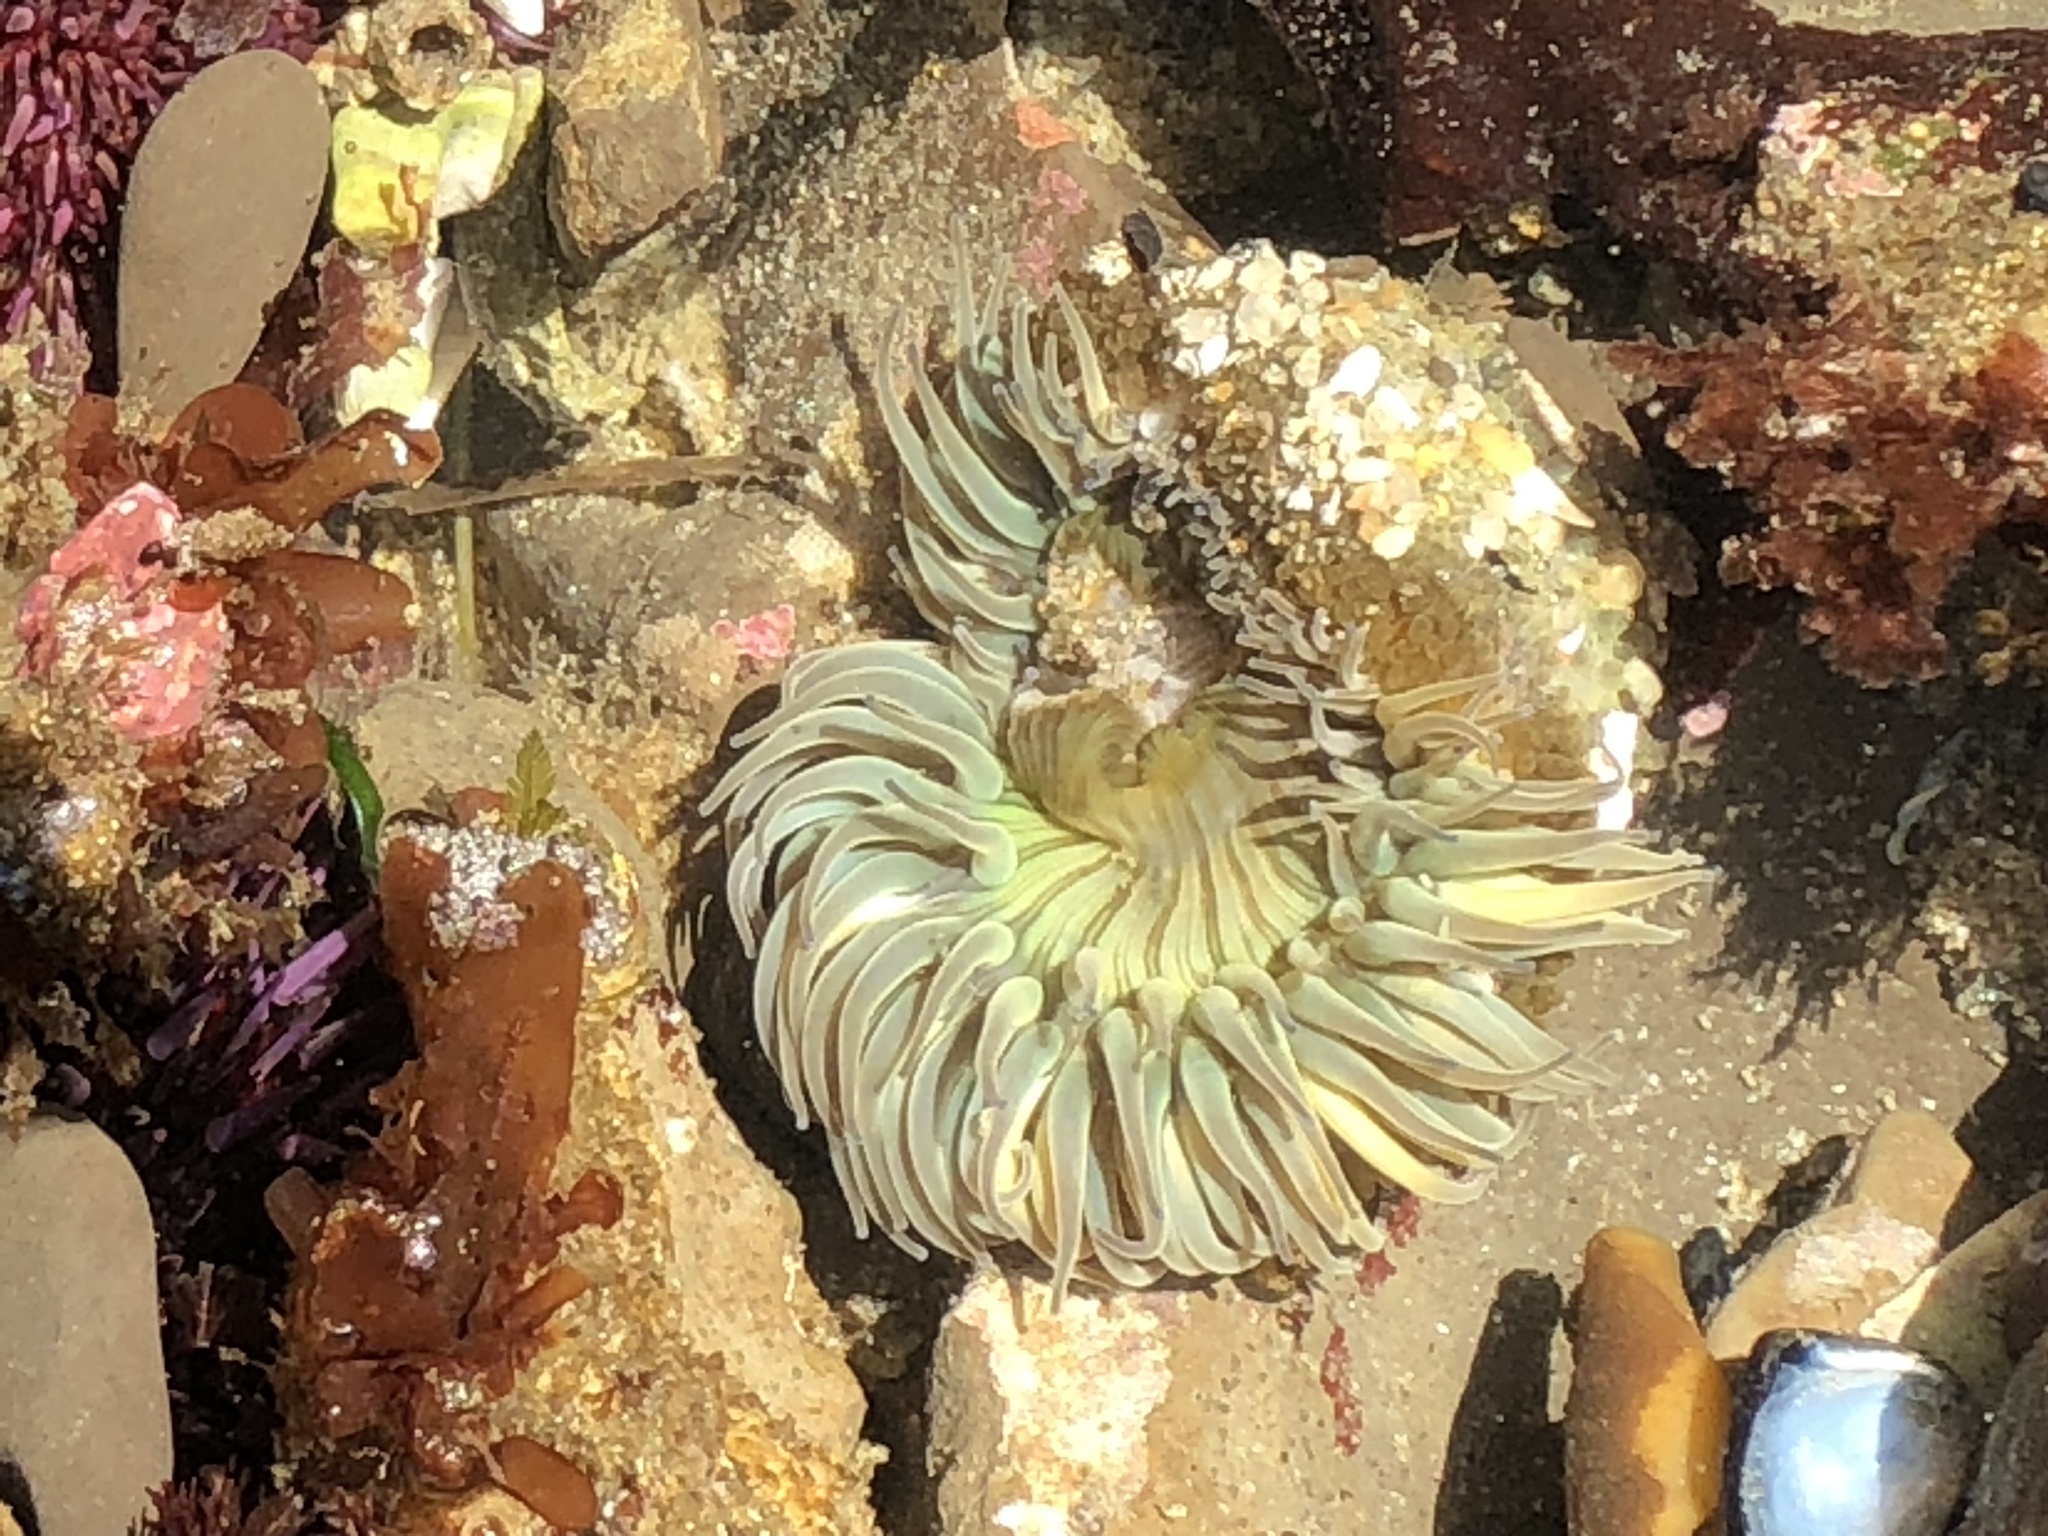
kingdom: Animalia
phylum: Cnidaria
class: Anthozoa
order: Actiniaria
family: Actiniidae
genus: Anthopleura
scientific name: Anthopleura sola
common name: Sun anemone
